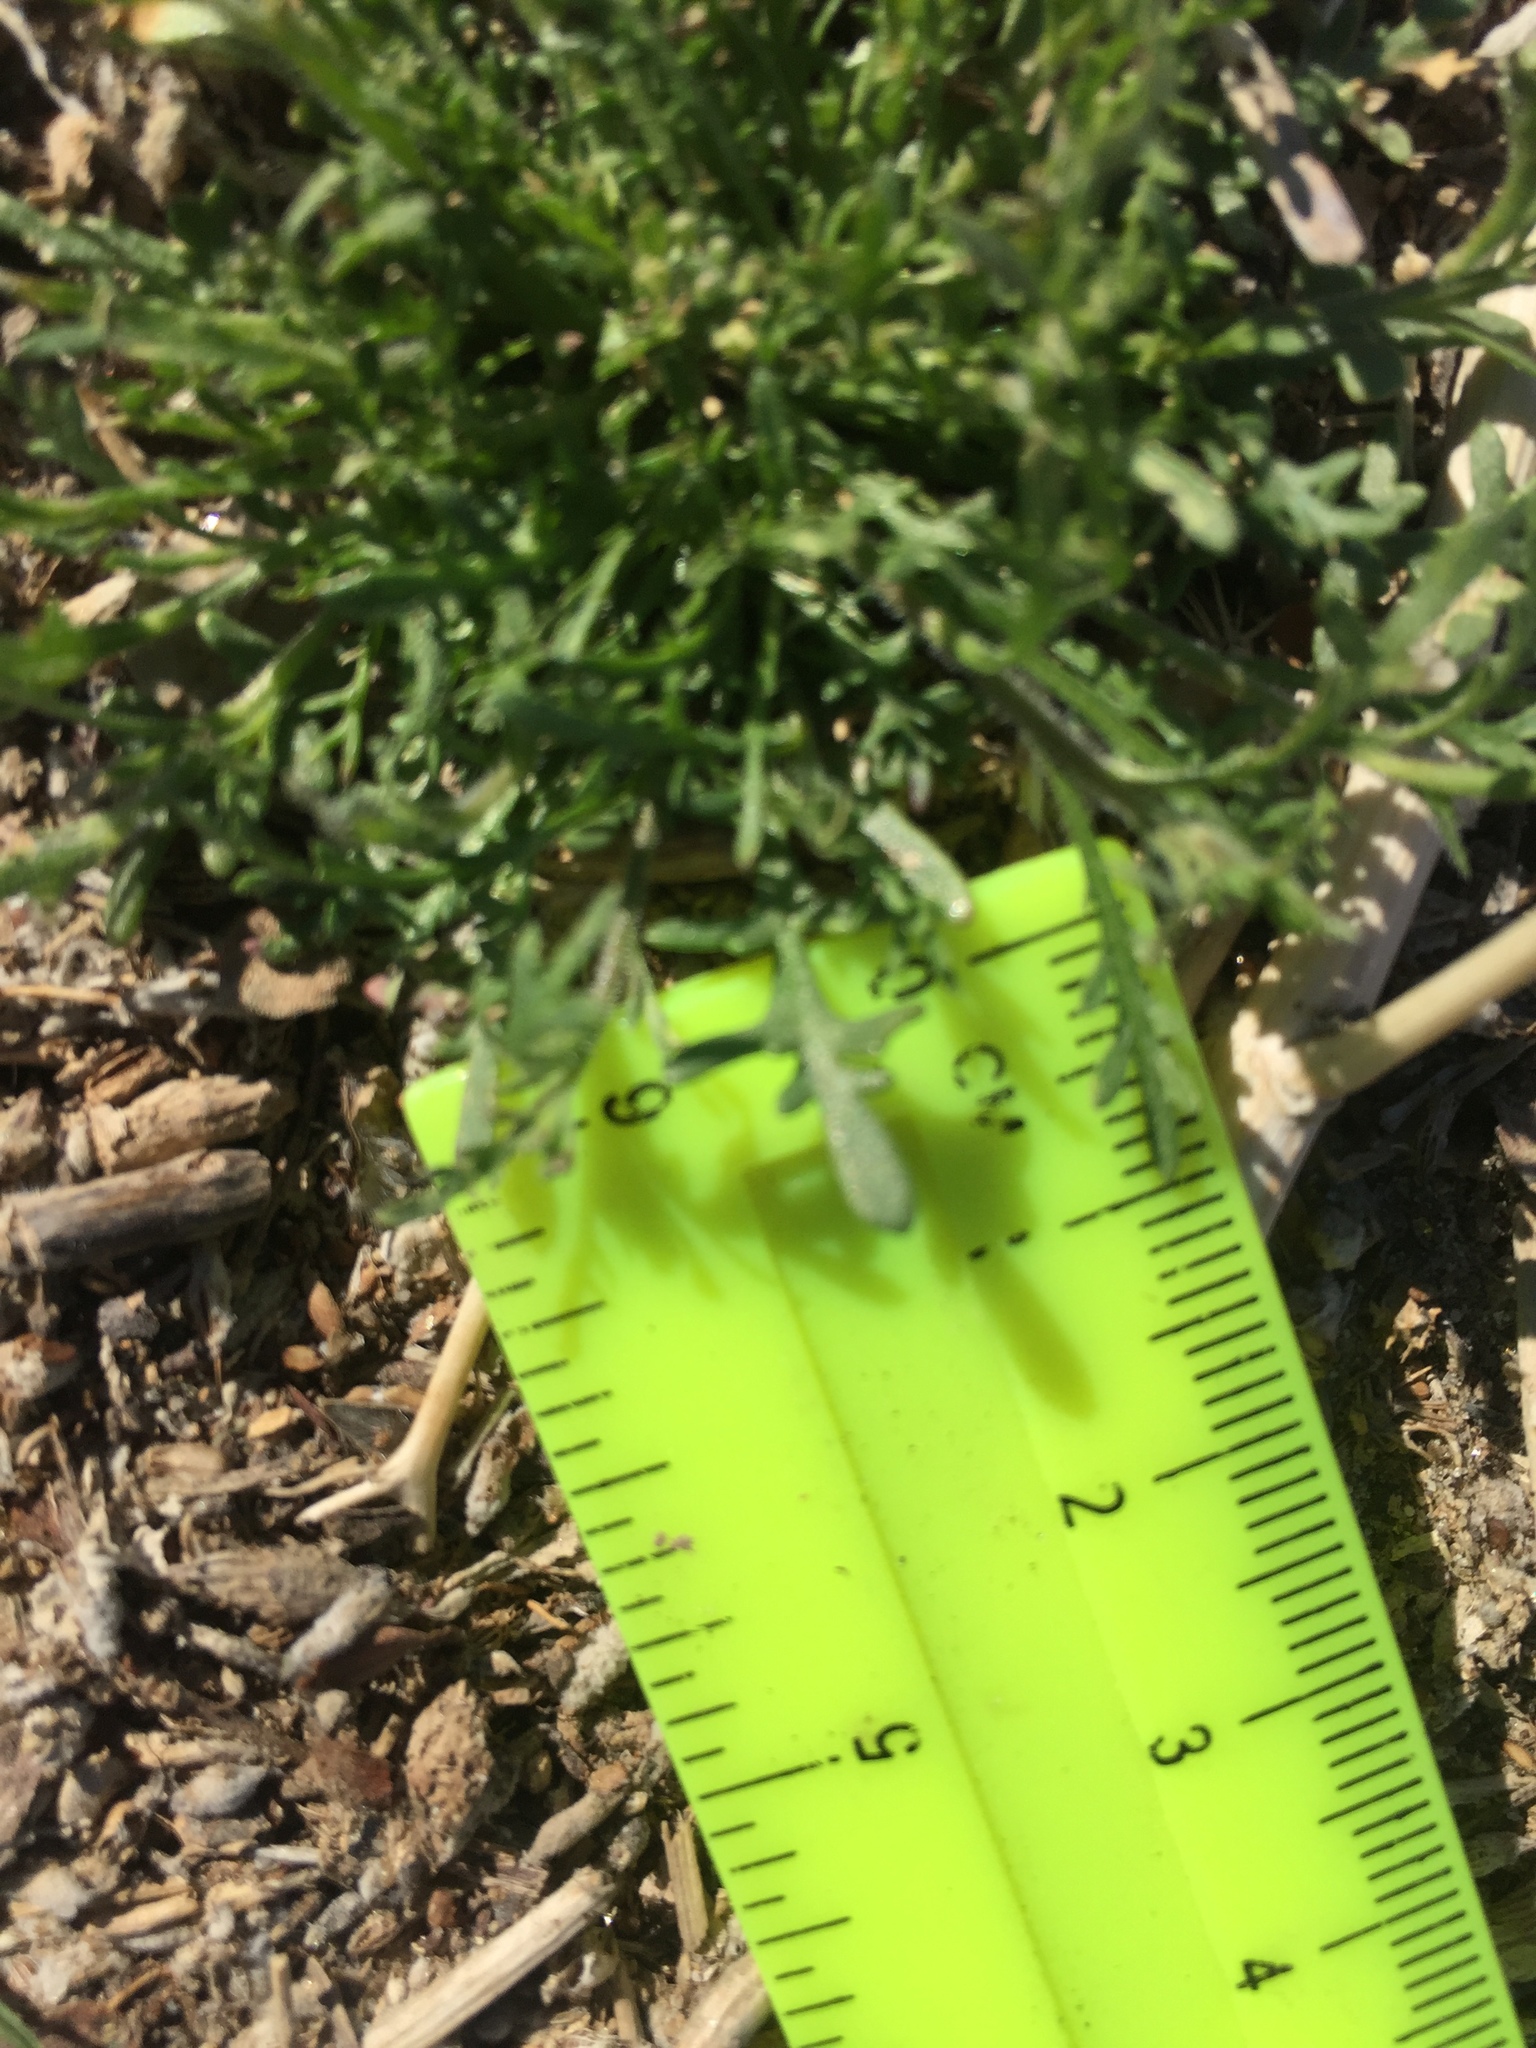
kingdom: Plantae
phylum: Tracheophyta
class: Magnoliopsida
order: Brassicales
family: Brassicaceae
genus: Lepidium
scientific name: Lepidium lasiocarpum
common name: Hairy-pod pepperwort
